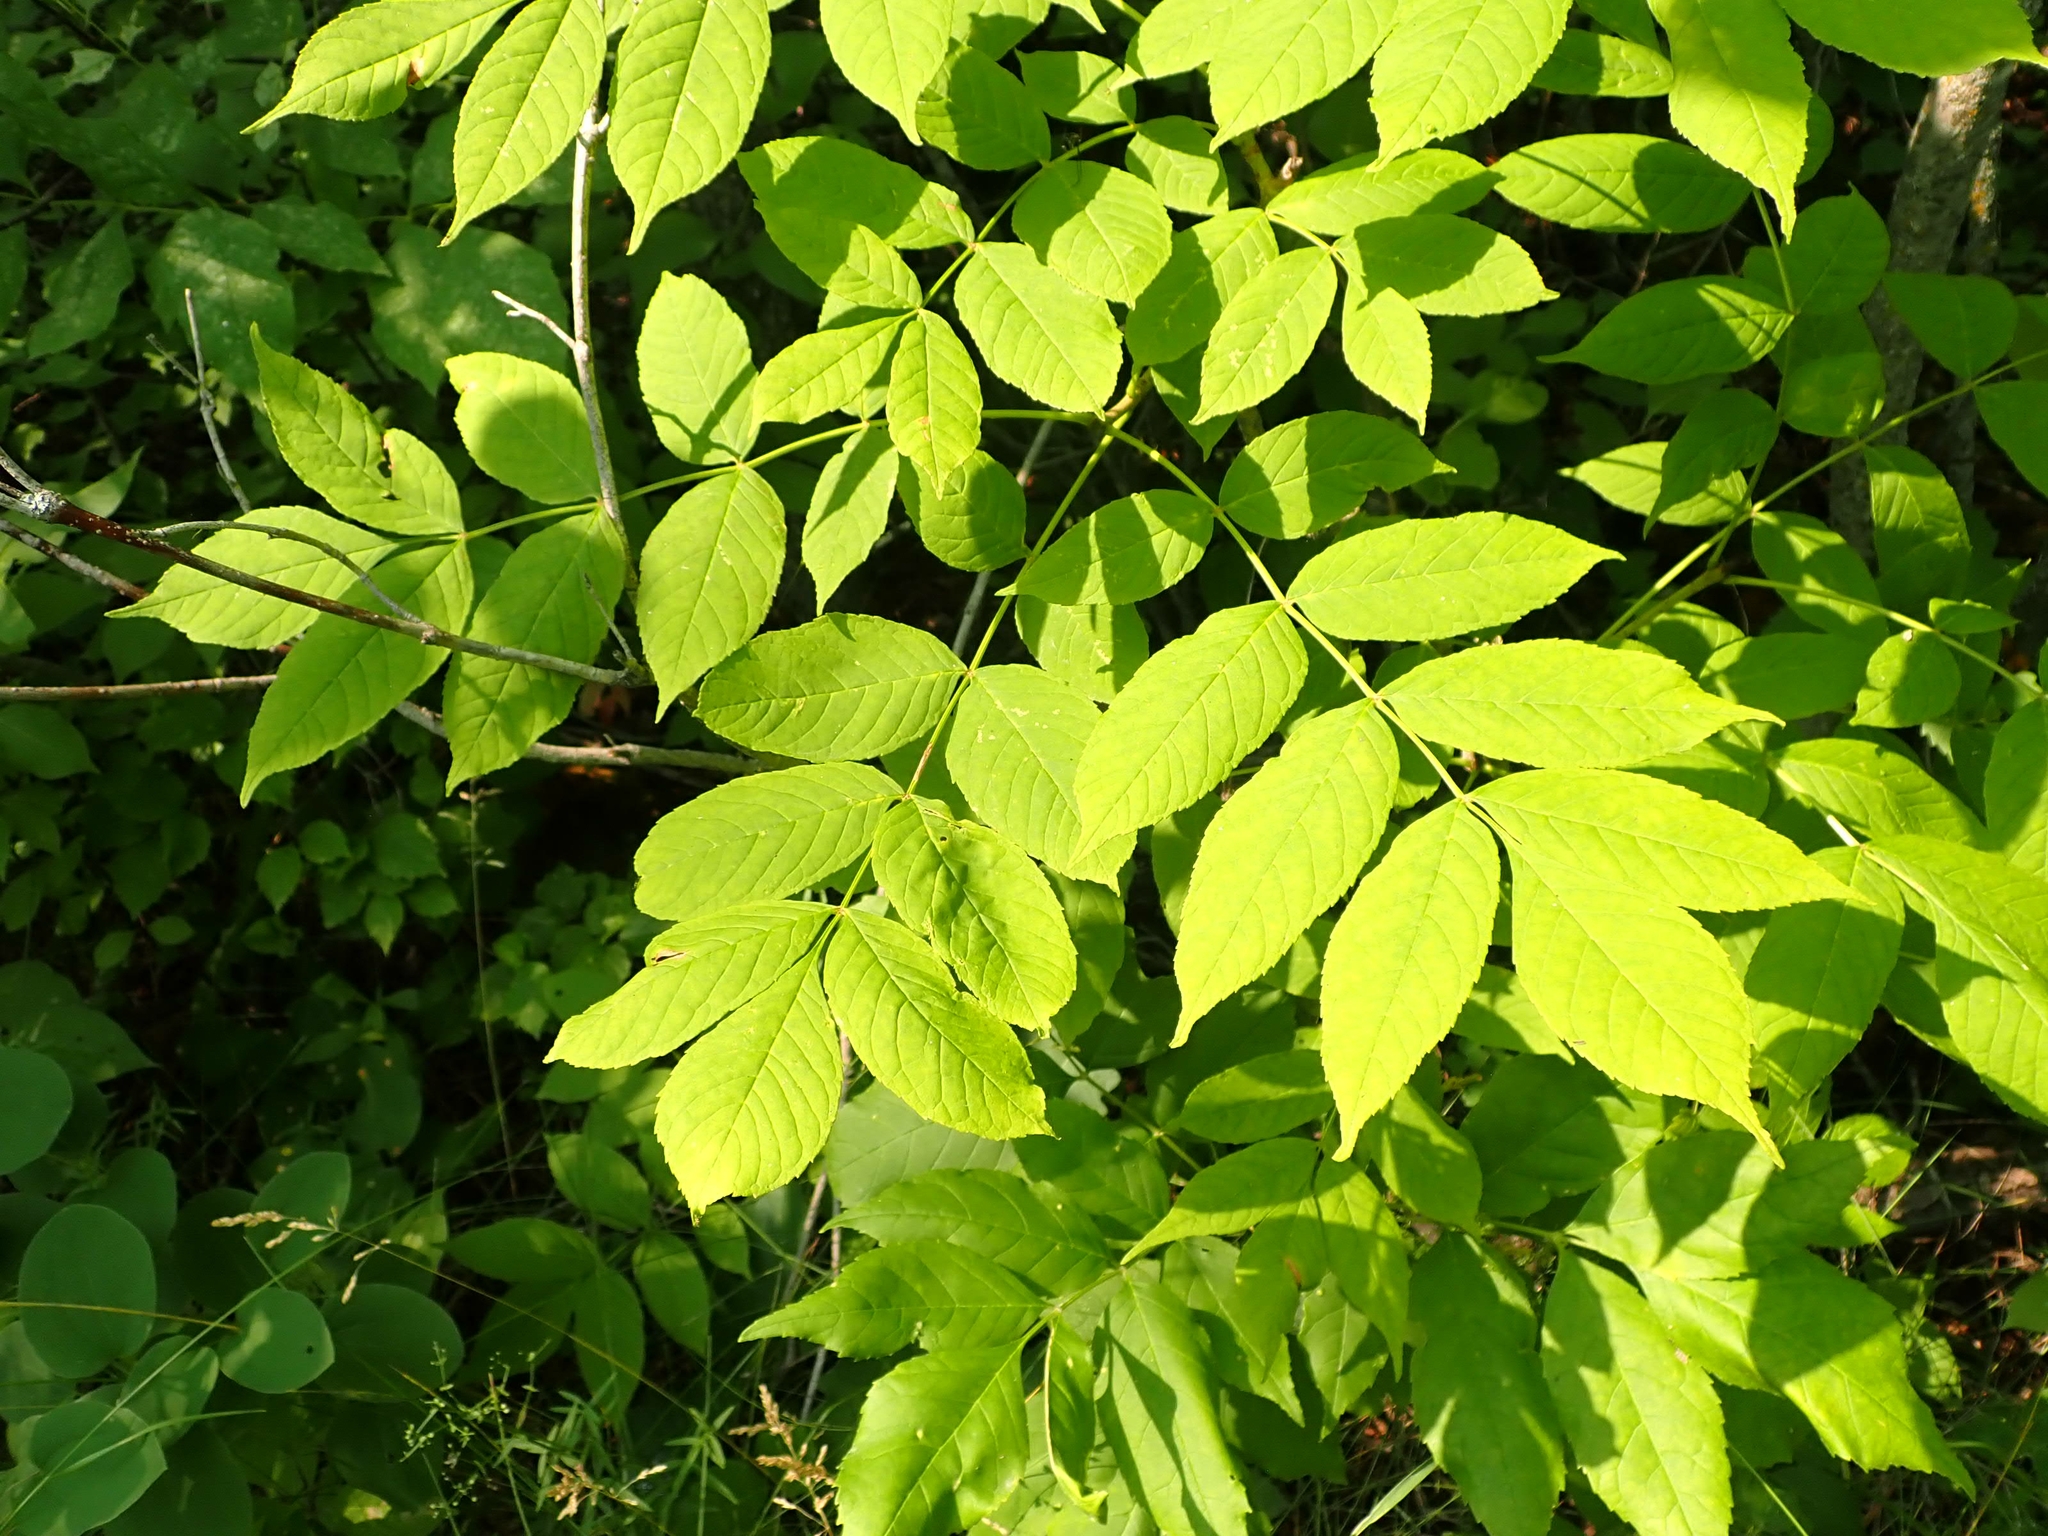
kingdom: Plantae
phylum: Tracheophyta
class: Magnoliopsida
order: Lamiales
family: Oleaceae
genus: Fraxinus
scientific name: Fraxinus nigra
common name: Black ash
